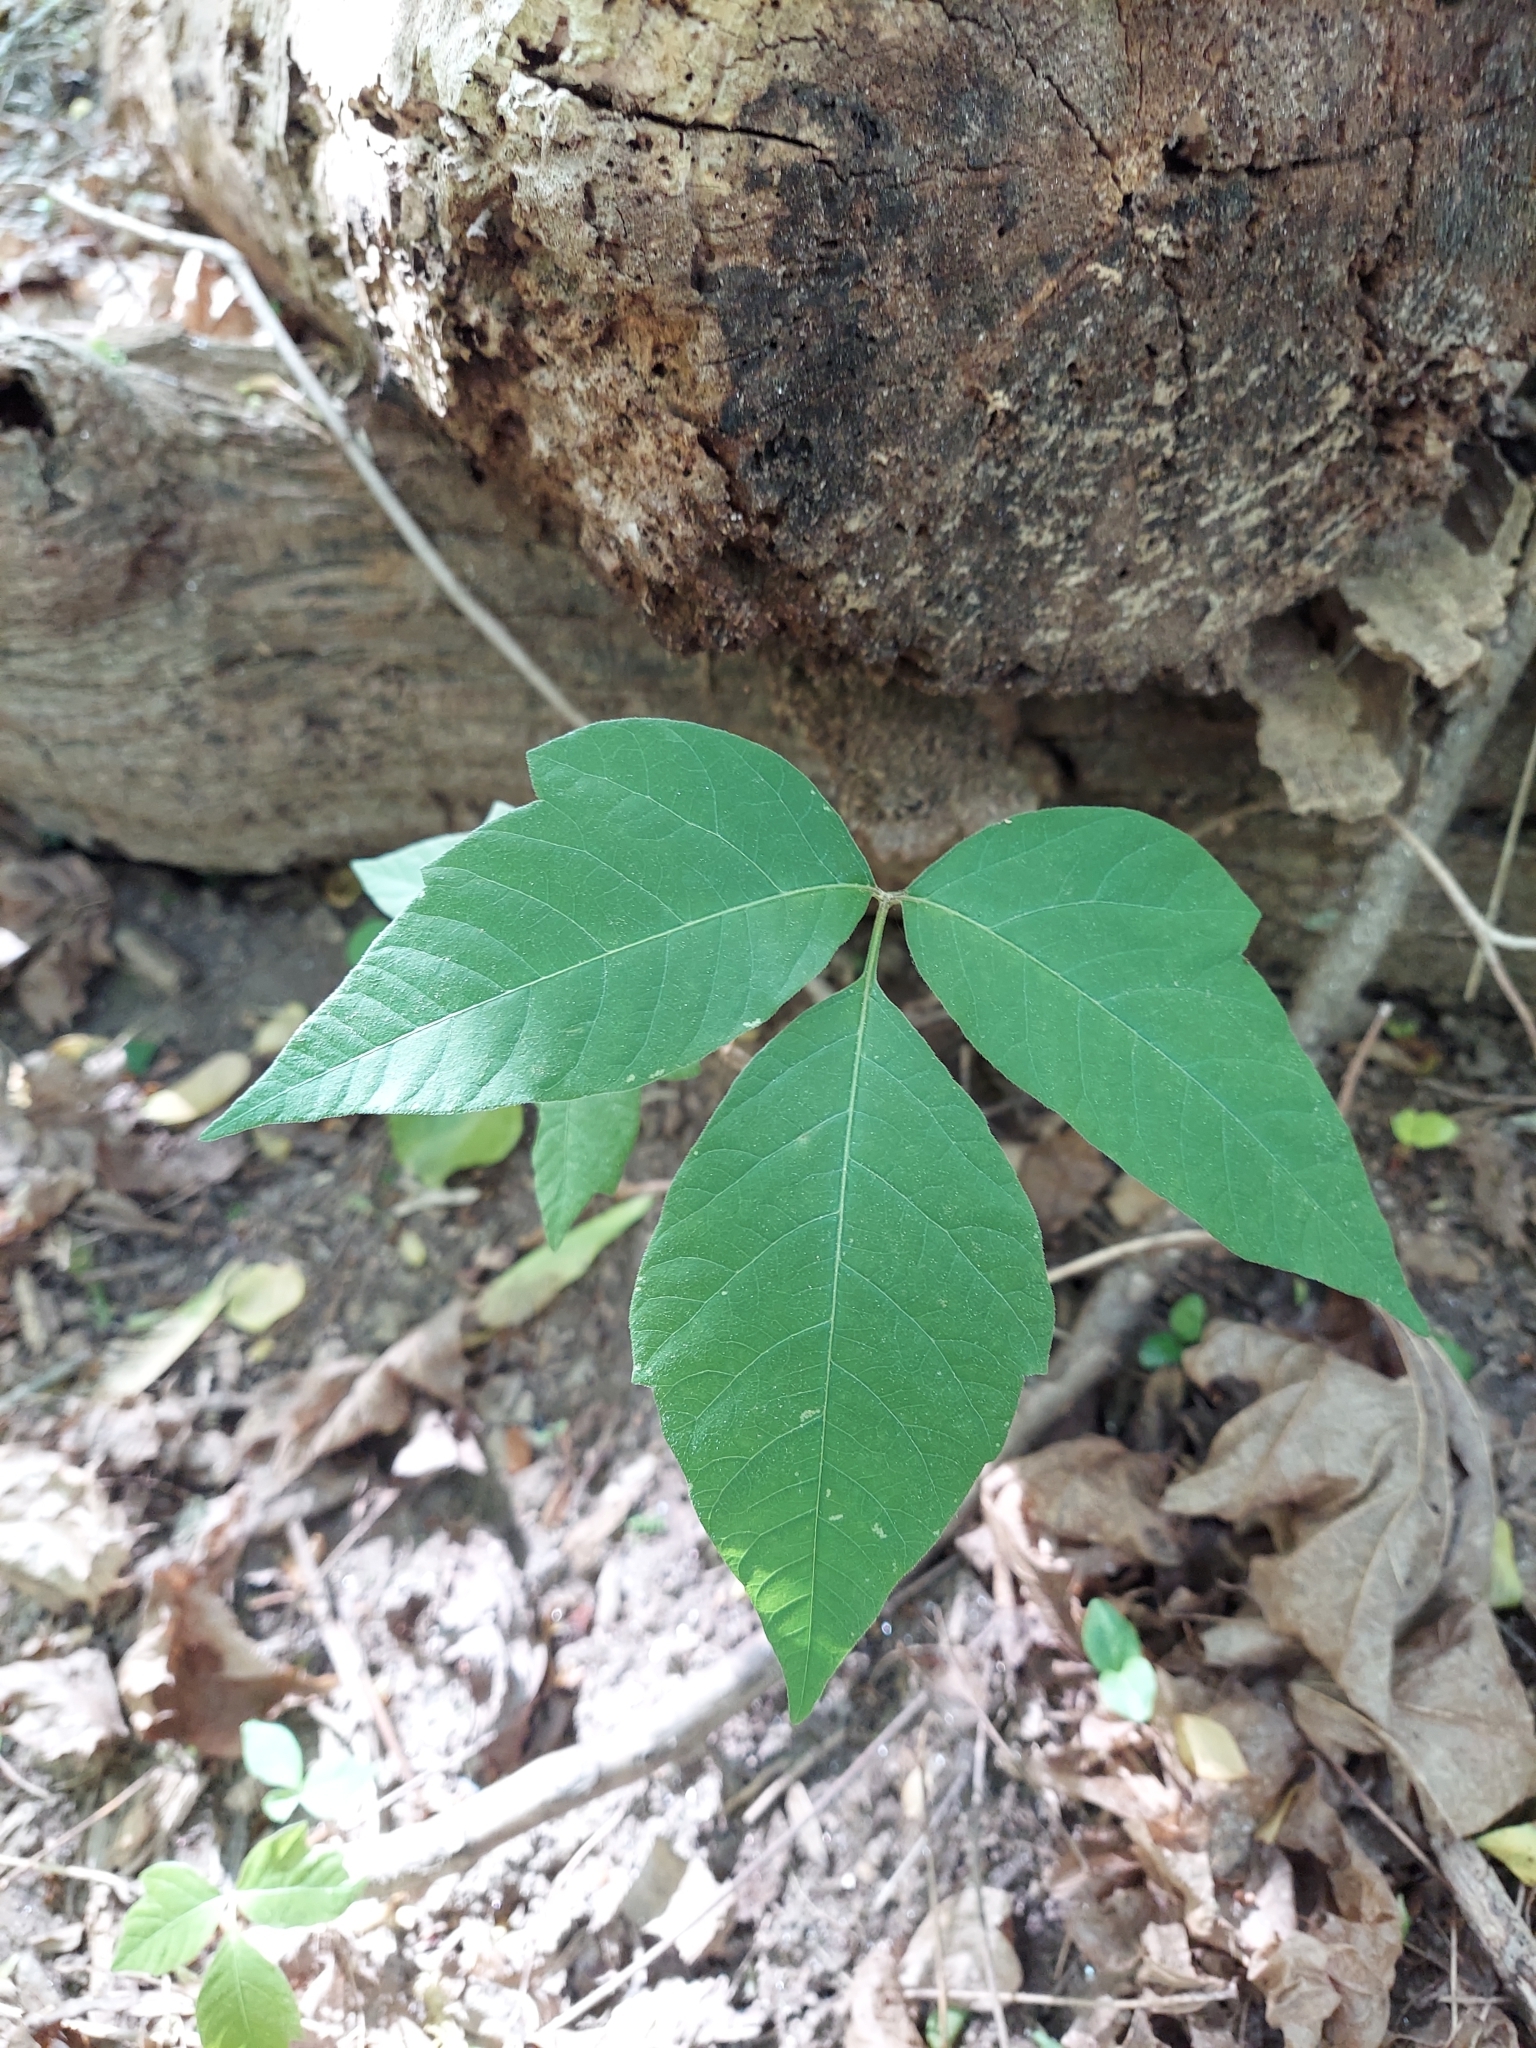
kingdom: Plantae
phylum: Tracheophyta
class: Magnoliopsida
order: Sapindales
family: Anacardiaceae
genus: Toxicodendron
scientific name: Toxicodendron radicans
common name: Poison ivy
